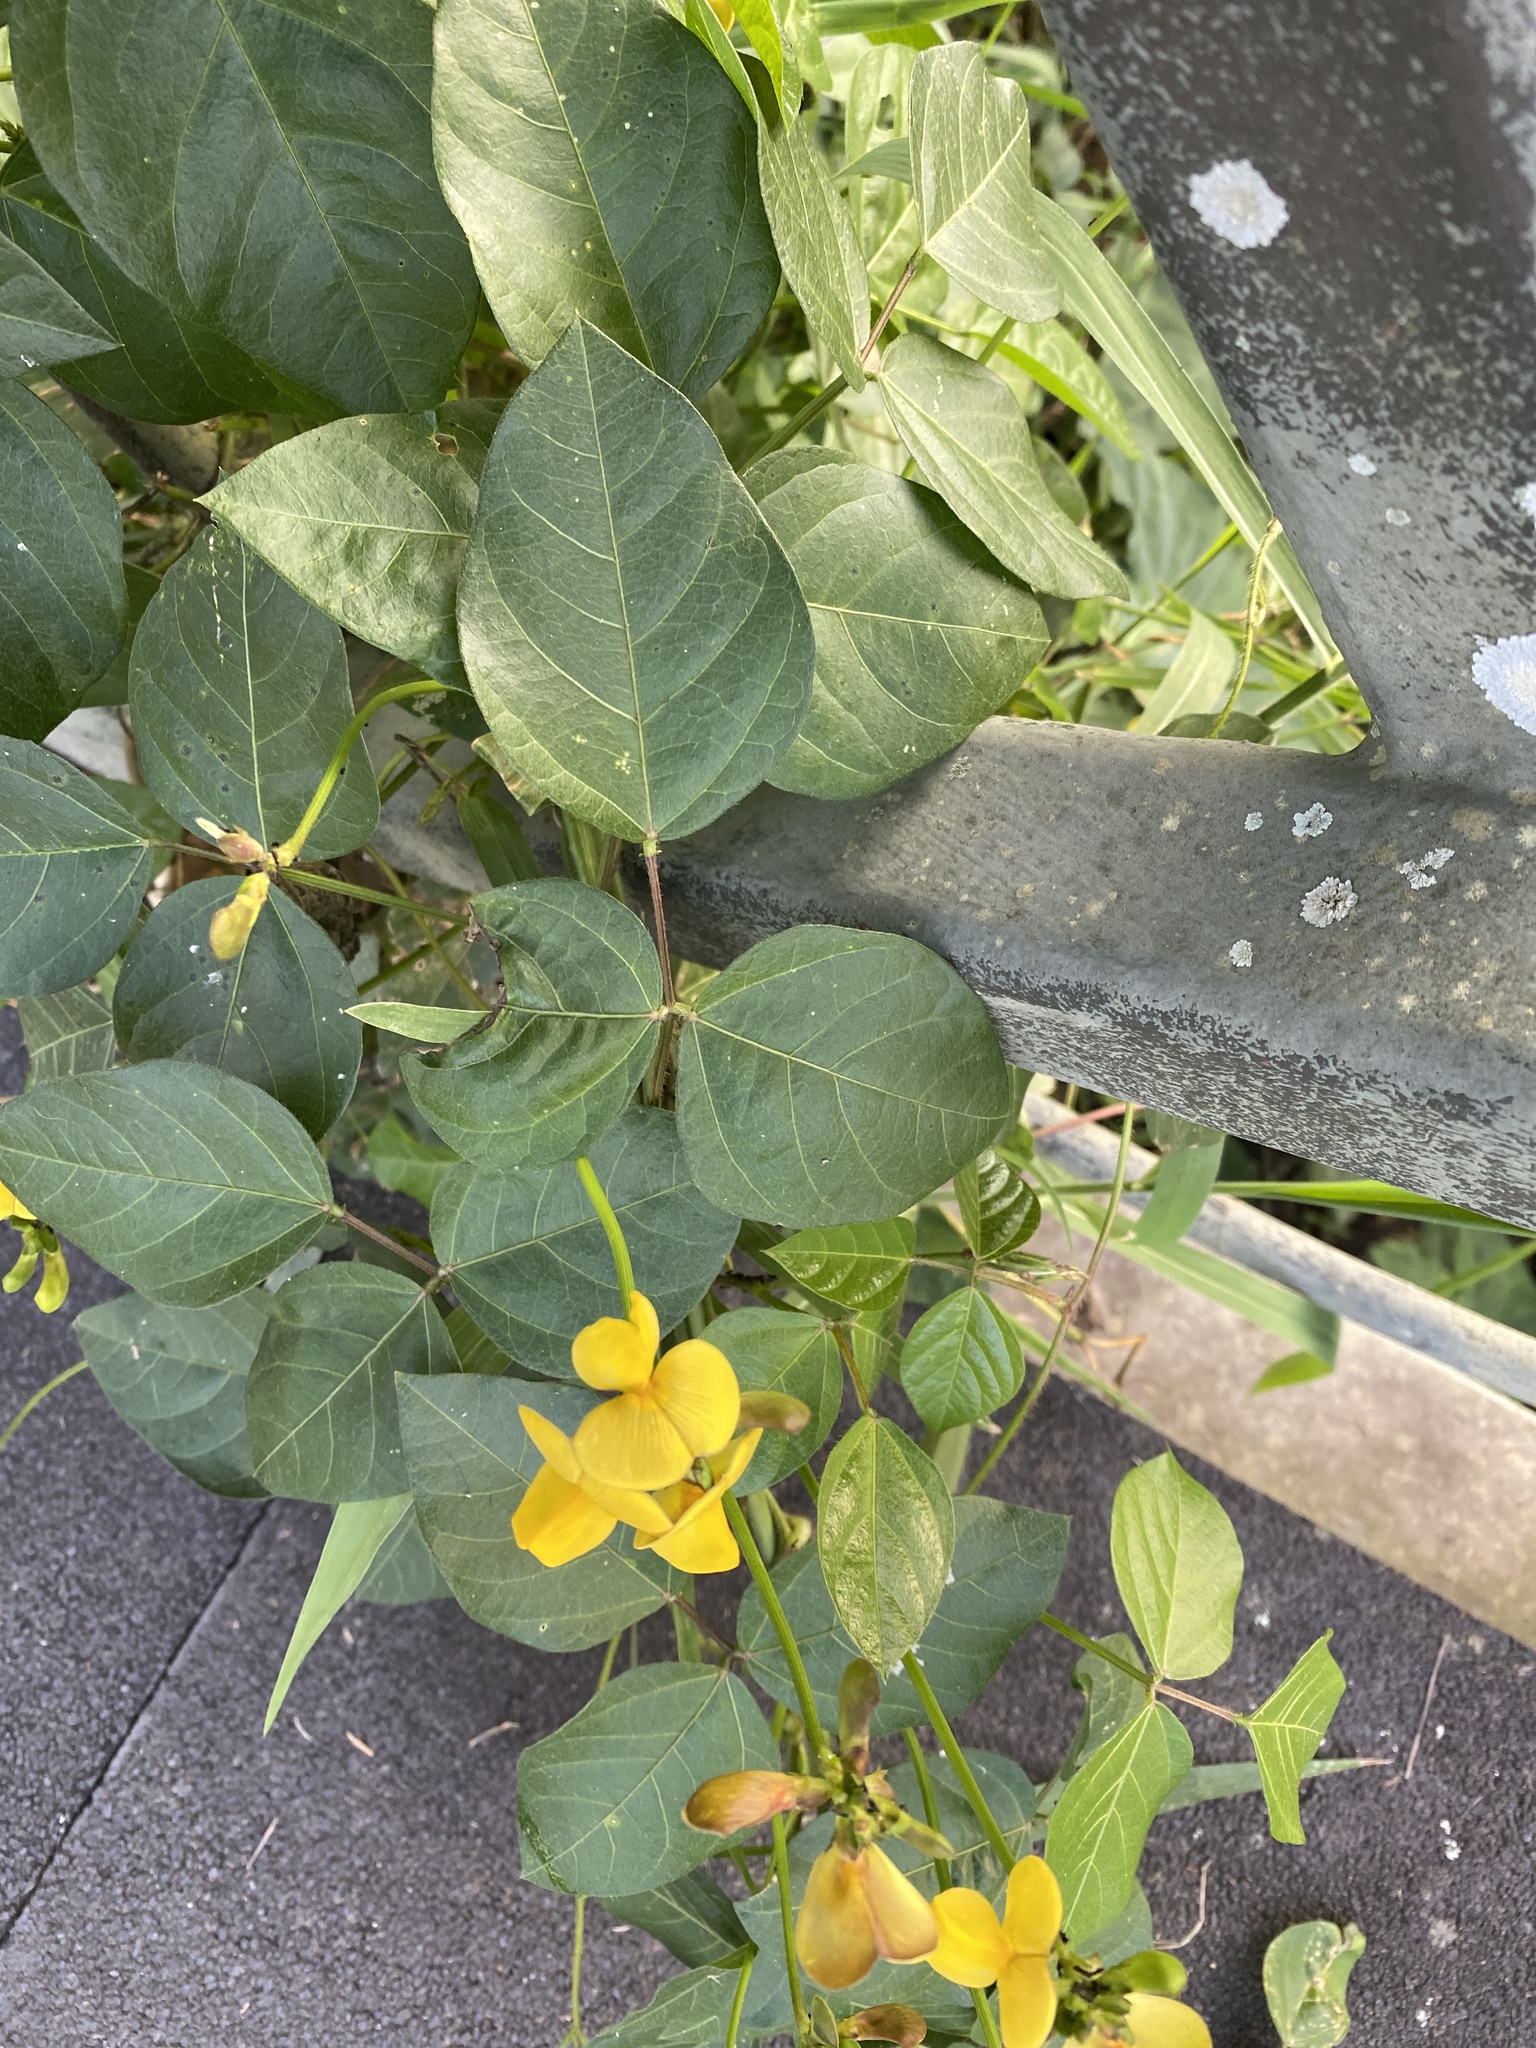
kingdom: Plantae
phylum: Tracheophyta
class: Magnoliopsida
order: Fabales
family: Fabaceae
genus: Vigna
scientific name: Vigna luteola
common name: Hairypod cowpea
